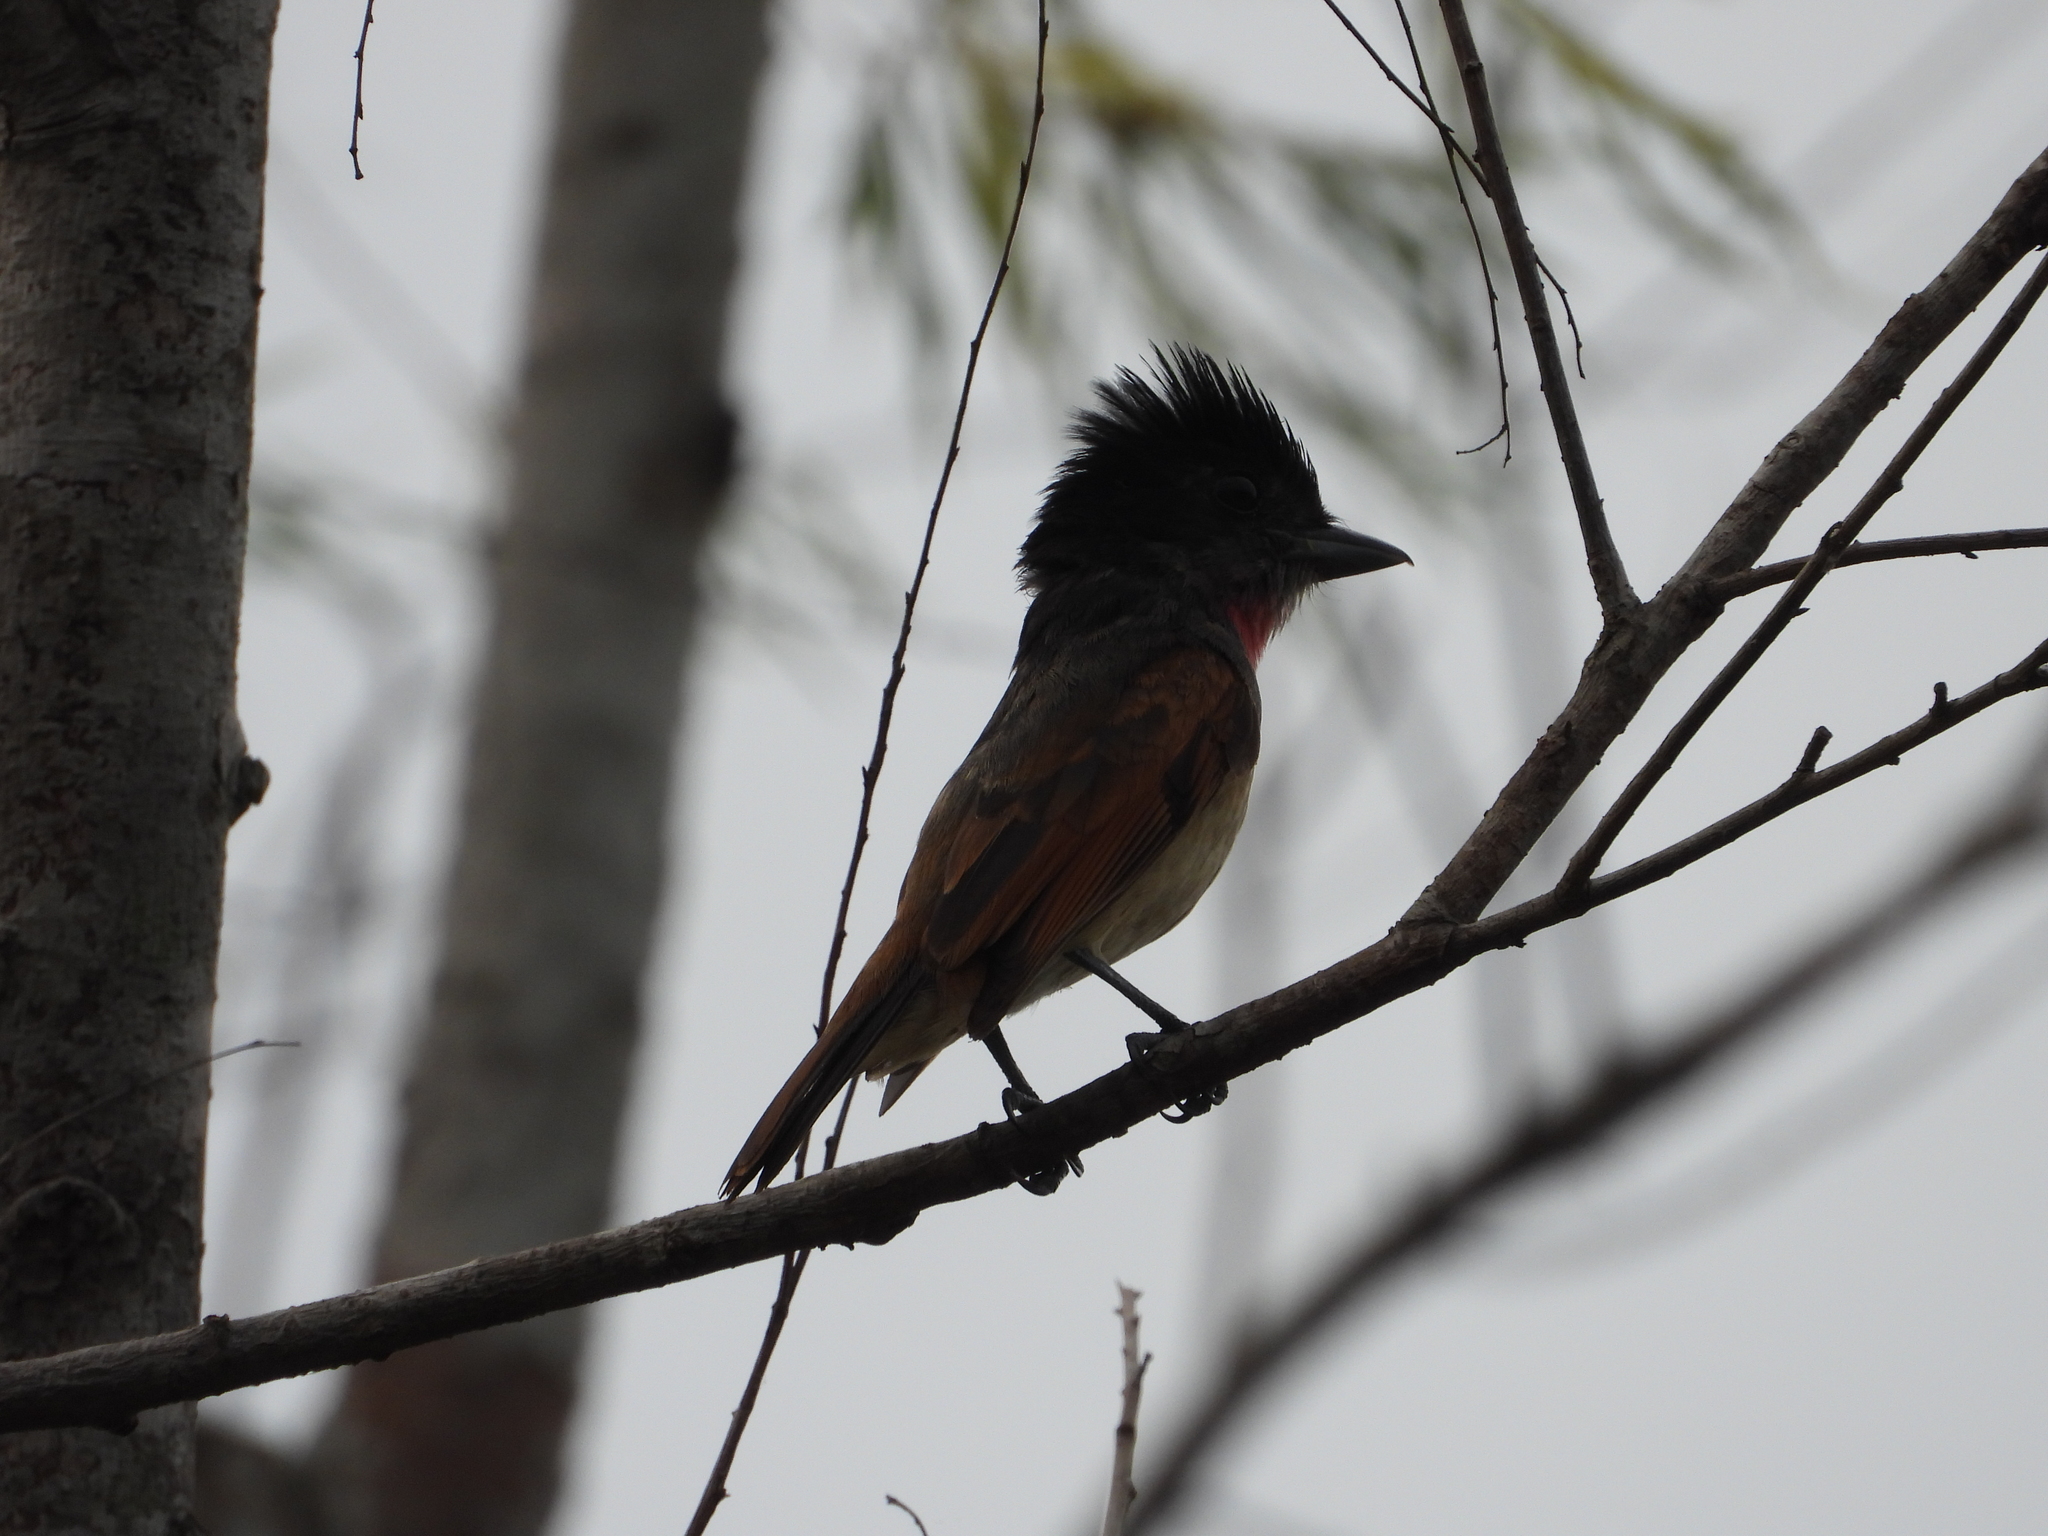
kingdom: Animalia
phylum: Chordata
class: Aves
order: Passeriformes
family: Cotingidae
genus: Pachyramphus
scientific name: Pachyramphus aglaiae
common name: Rose-throated becard
